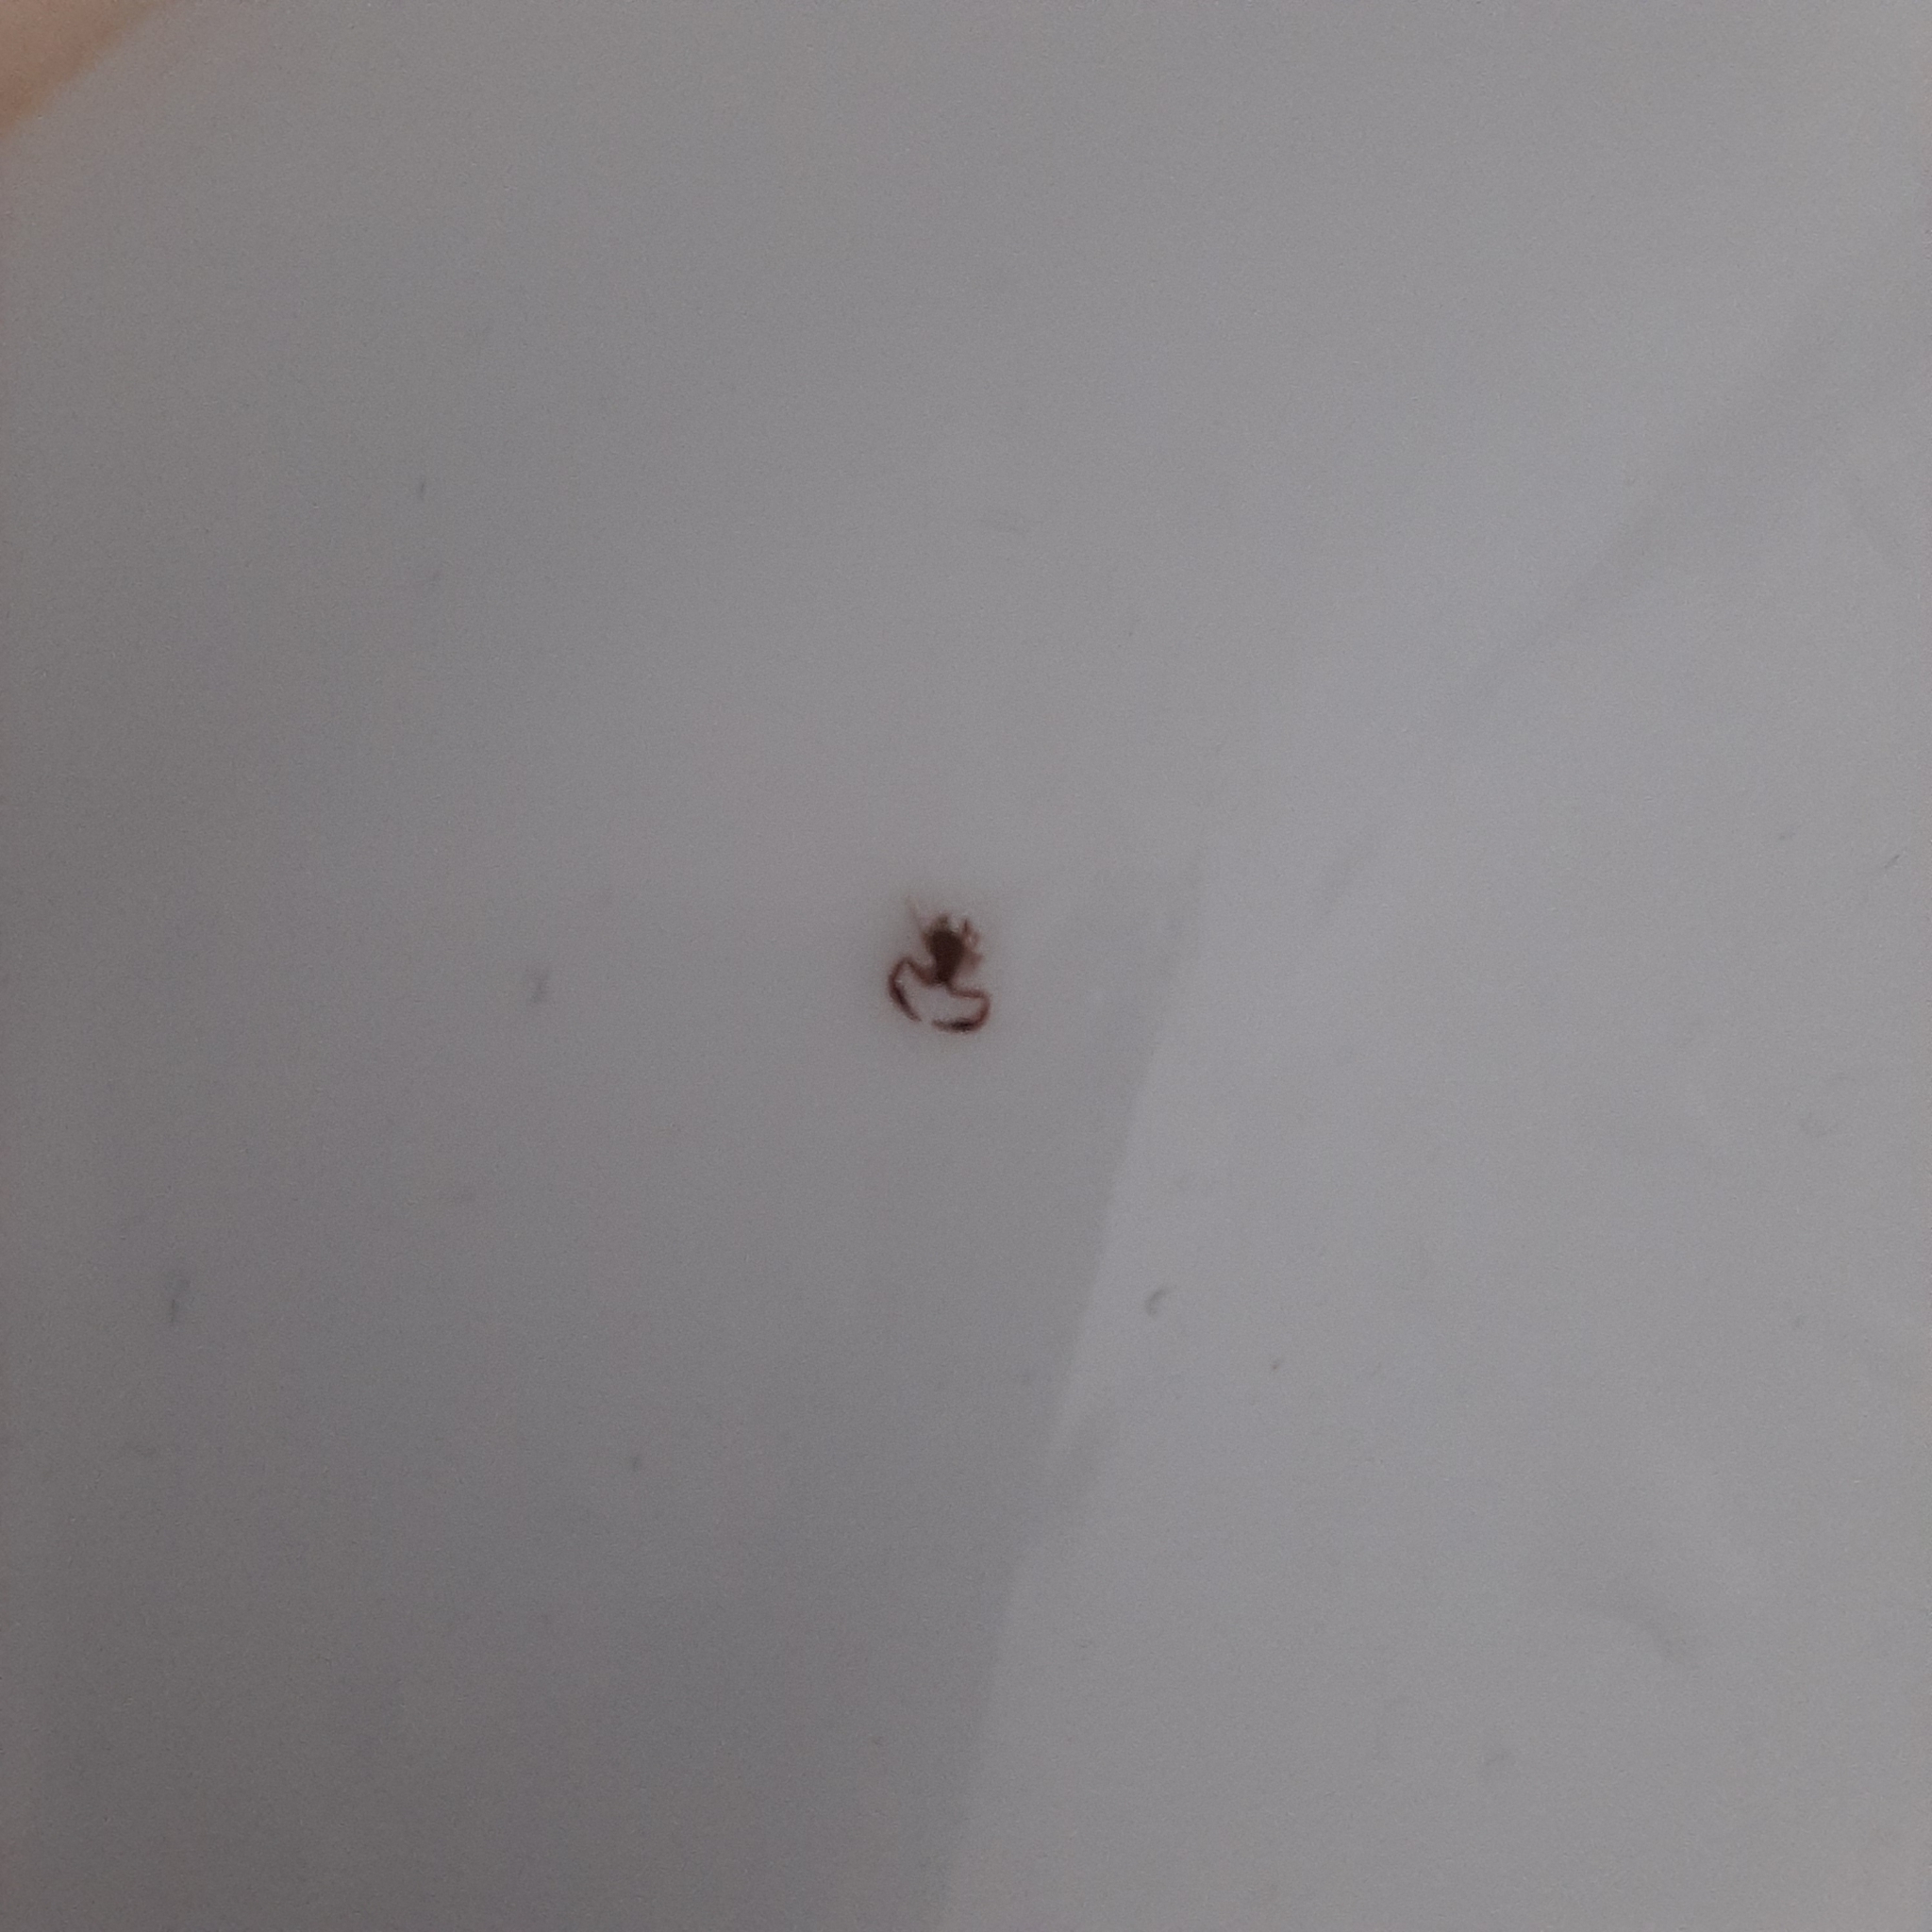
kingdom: Animalia
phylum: Arthropoda
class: Arachnida
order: Pseudoscorpiones
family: Cheliferidae
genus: Chelifer
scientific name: Chelifer
